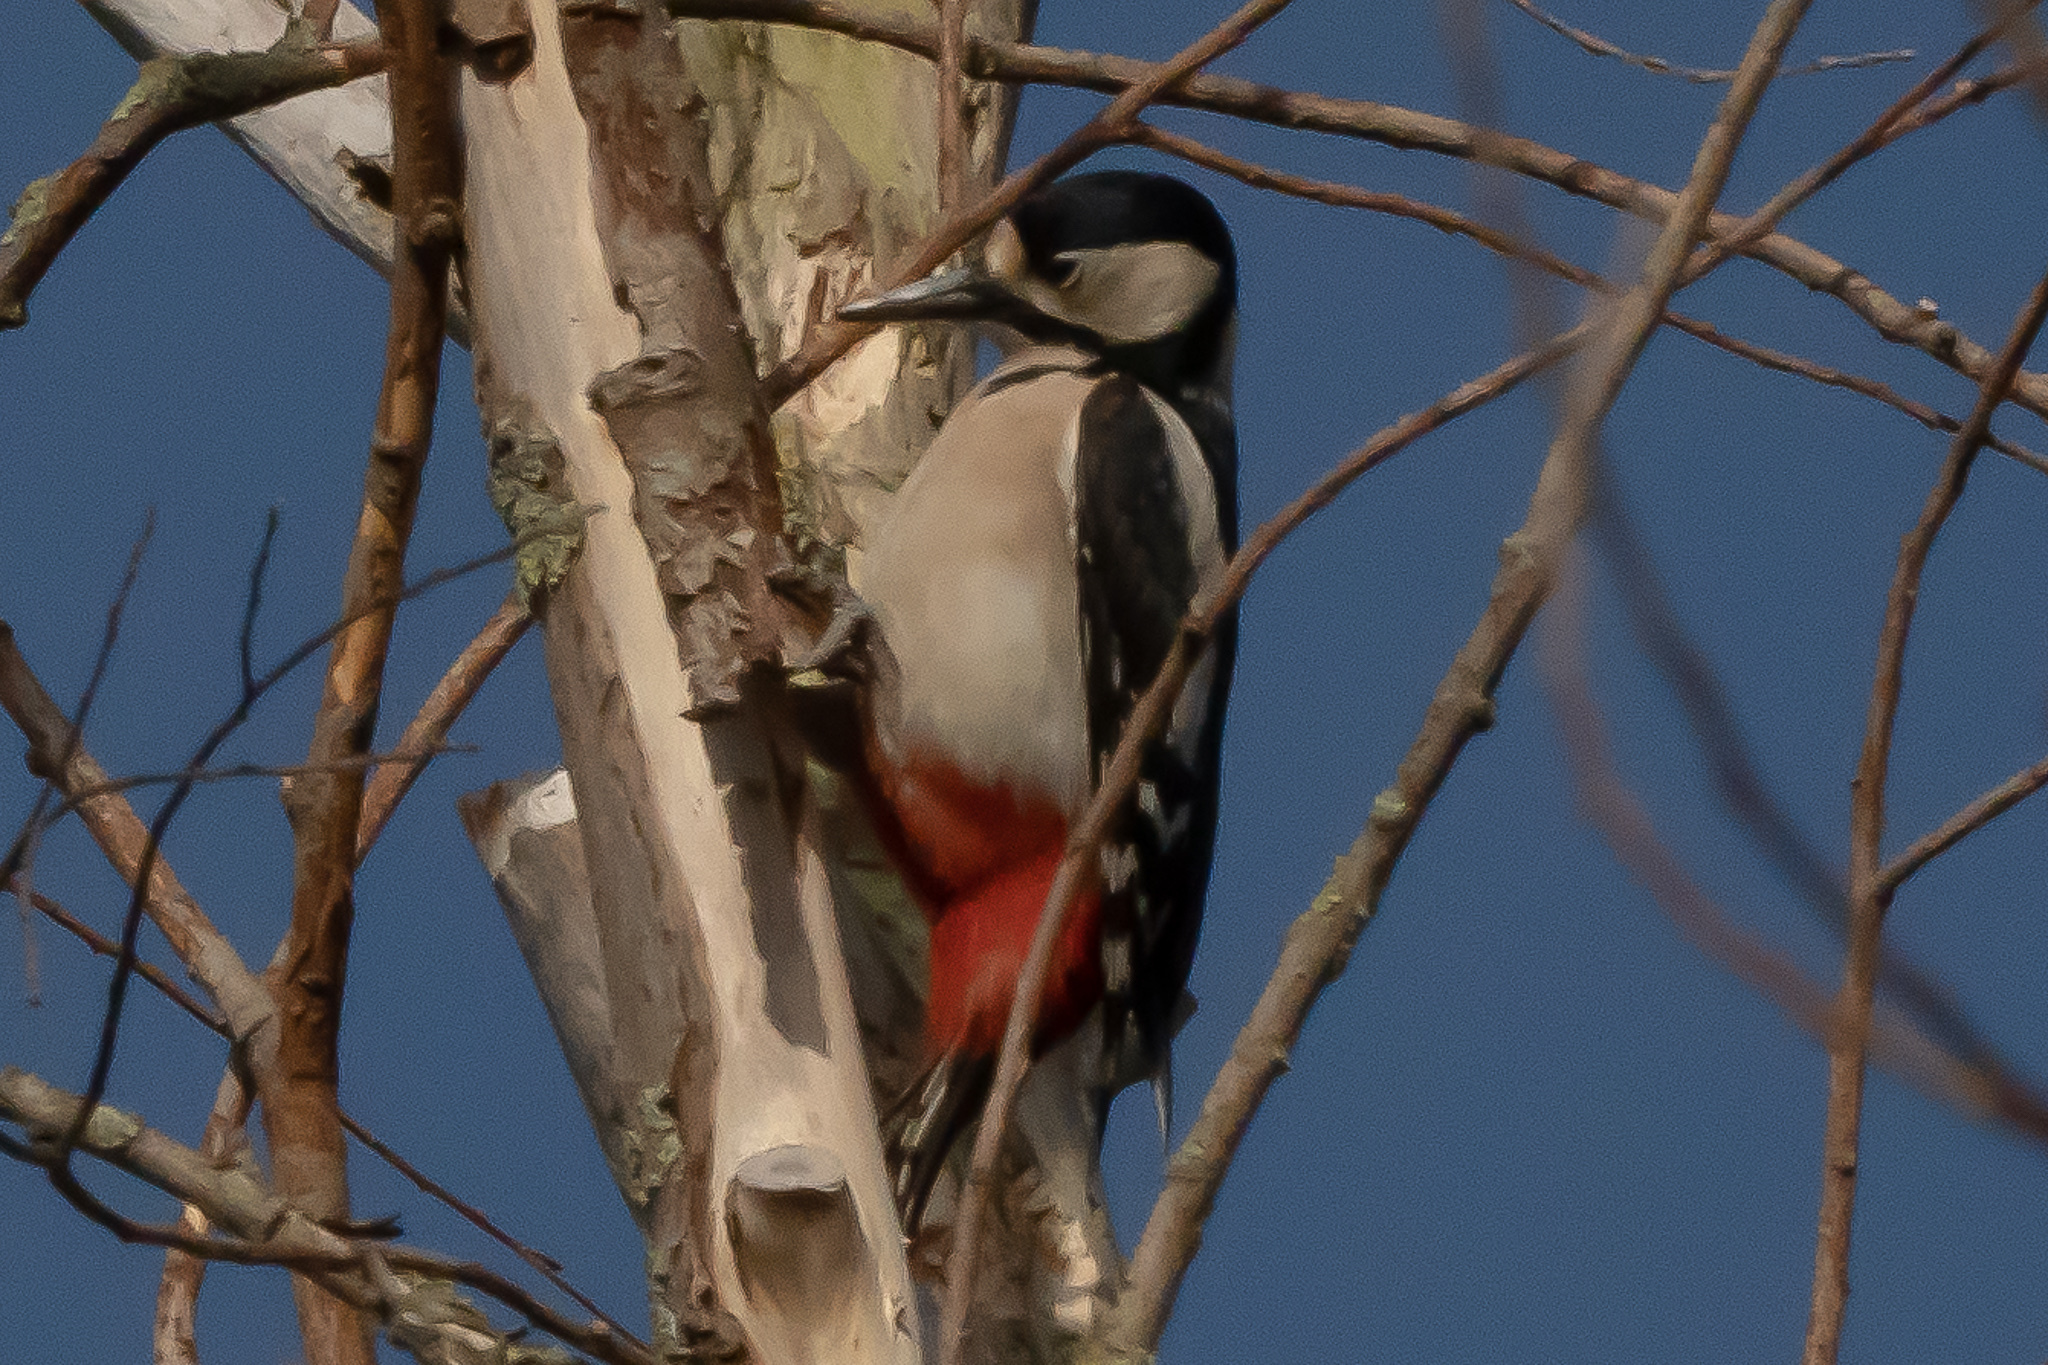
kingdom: Animalia
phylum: Chordata
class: Aves
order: Piciformes
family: Picidae
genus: Dendrocopos
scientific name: Dendrocopos major
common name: Great spotted woodpecker
